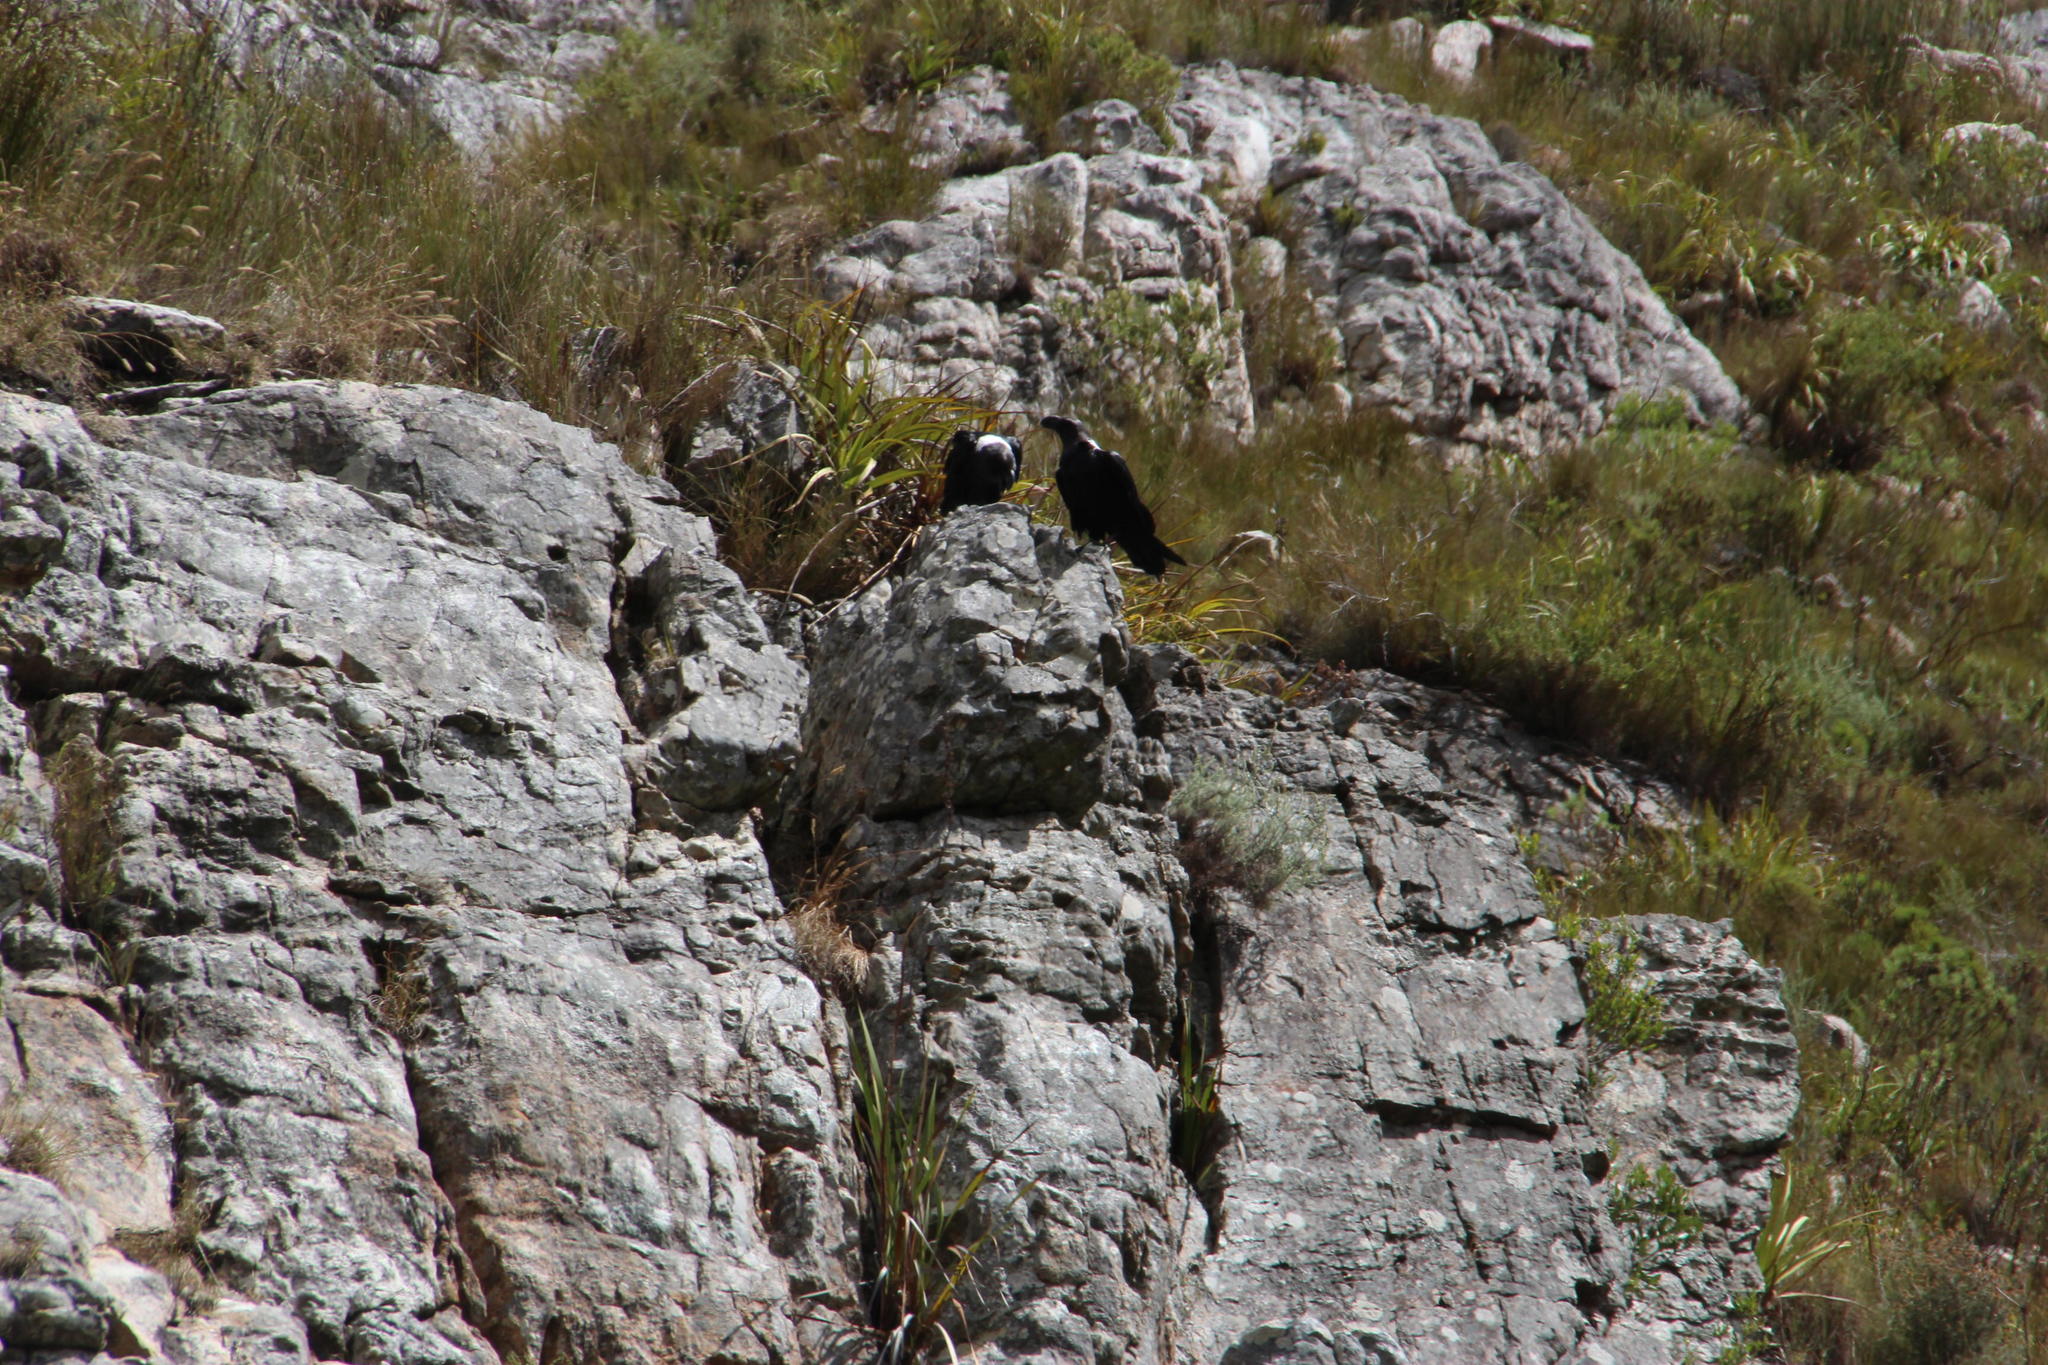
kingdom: Animalia
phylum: Chordata
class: Aves
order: Passeriformes
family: Corvidae
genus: Corvus
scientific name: Corvus albicollis
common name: White-necked raven
